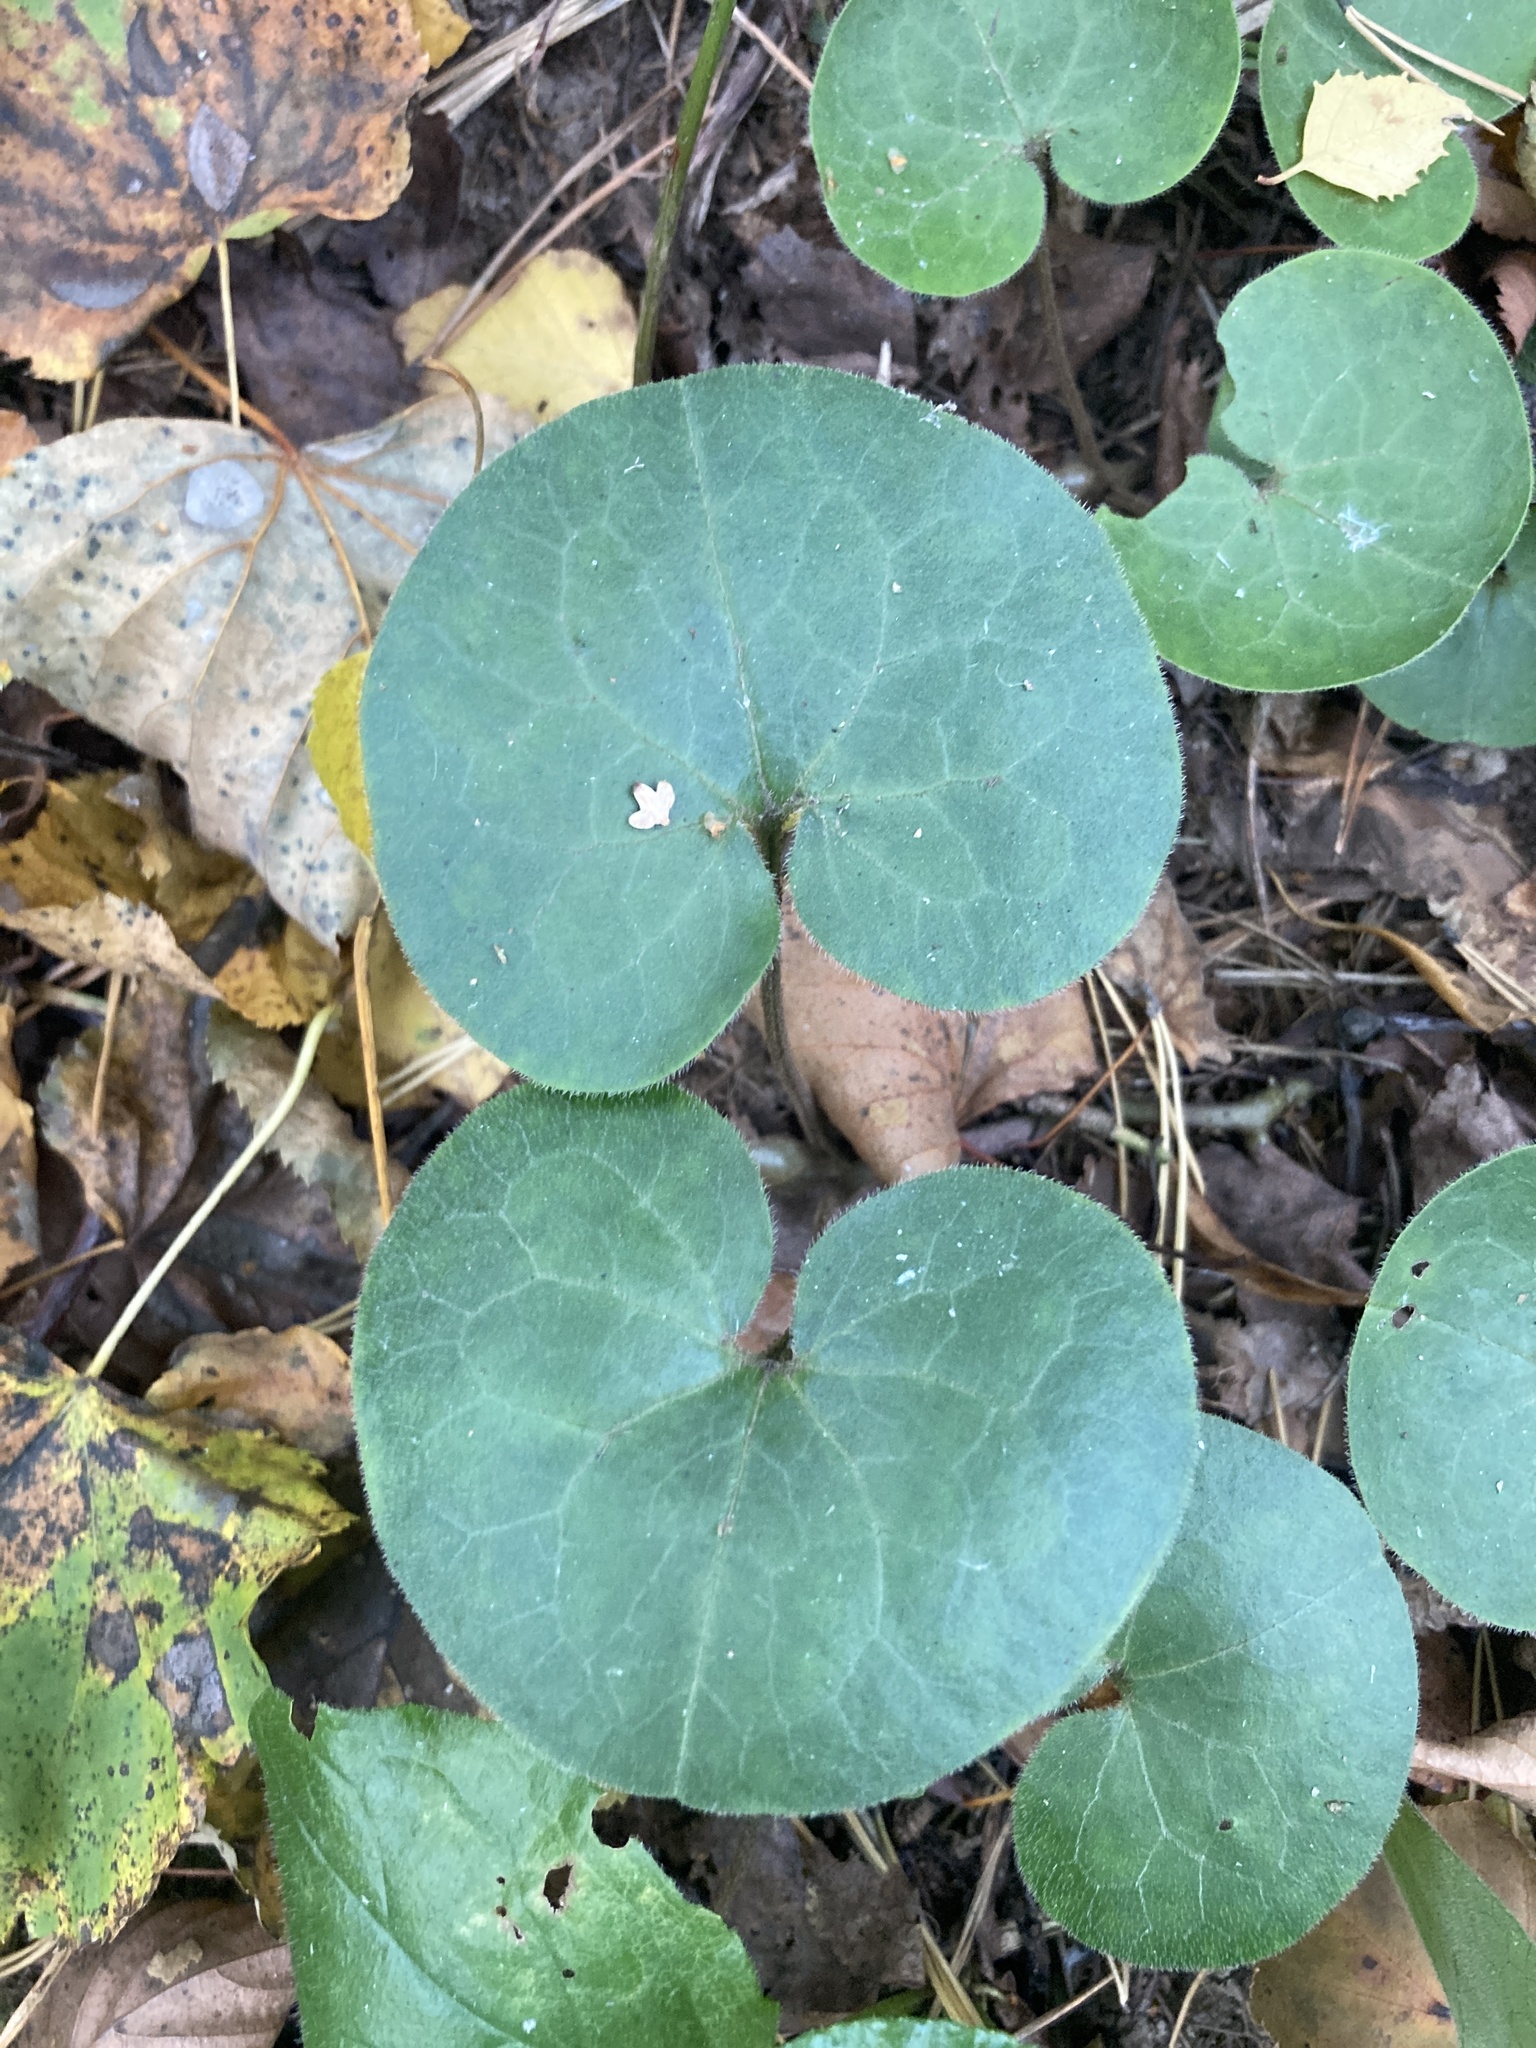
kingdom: Plantae
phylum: Tracheophyta
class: Magnoliopsida
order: Piperales
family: Aristolochiaceae
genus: Asarum
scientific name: Asarum europaeum
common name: Asarabacca
